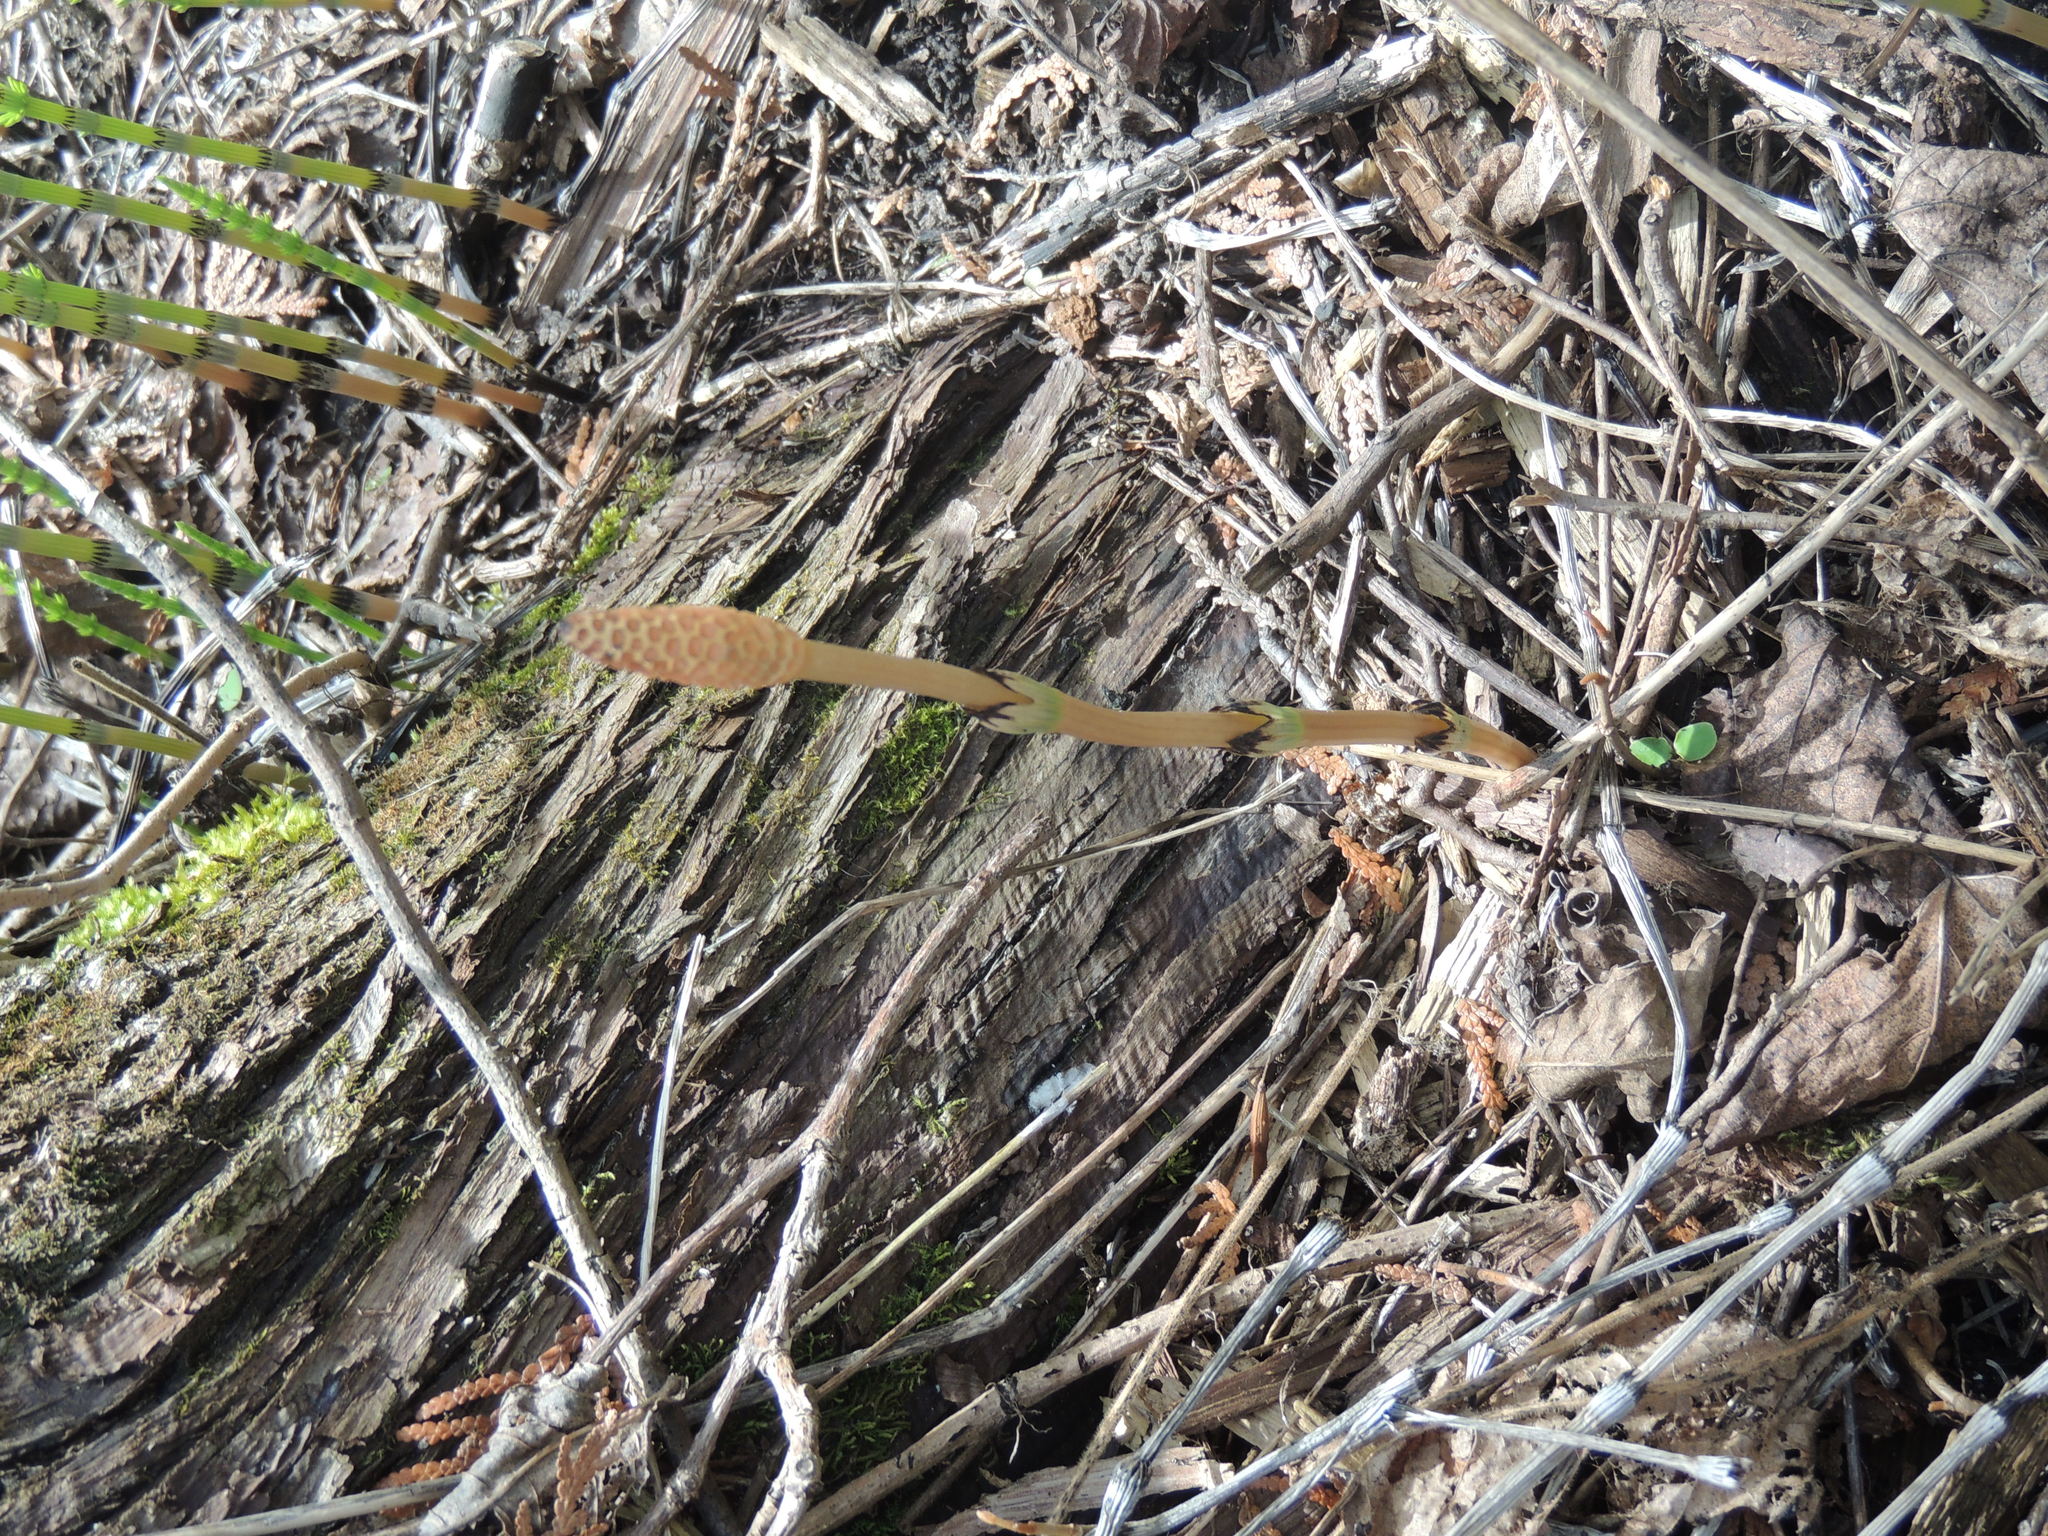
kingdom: Plantae
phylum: Tracheophyta
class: Polypodiopsida
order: Equisetales
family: Equisetaceae
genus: Equisetum
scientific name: Equisetum arvense
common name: Field horsetail
